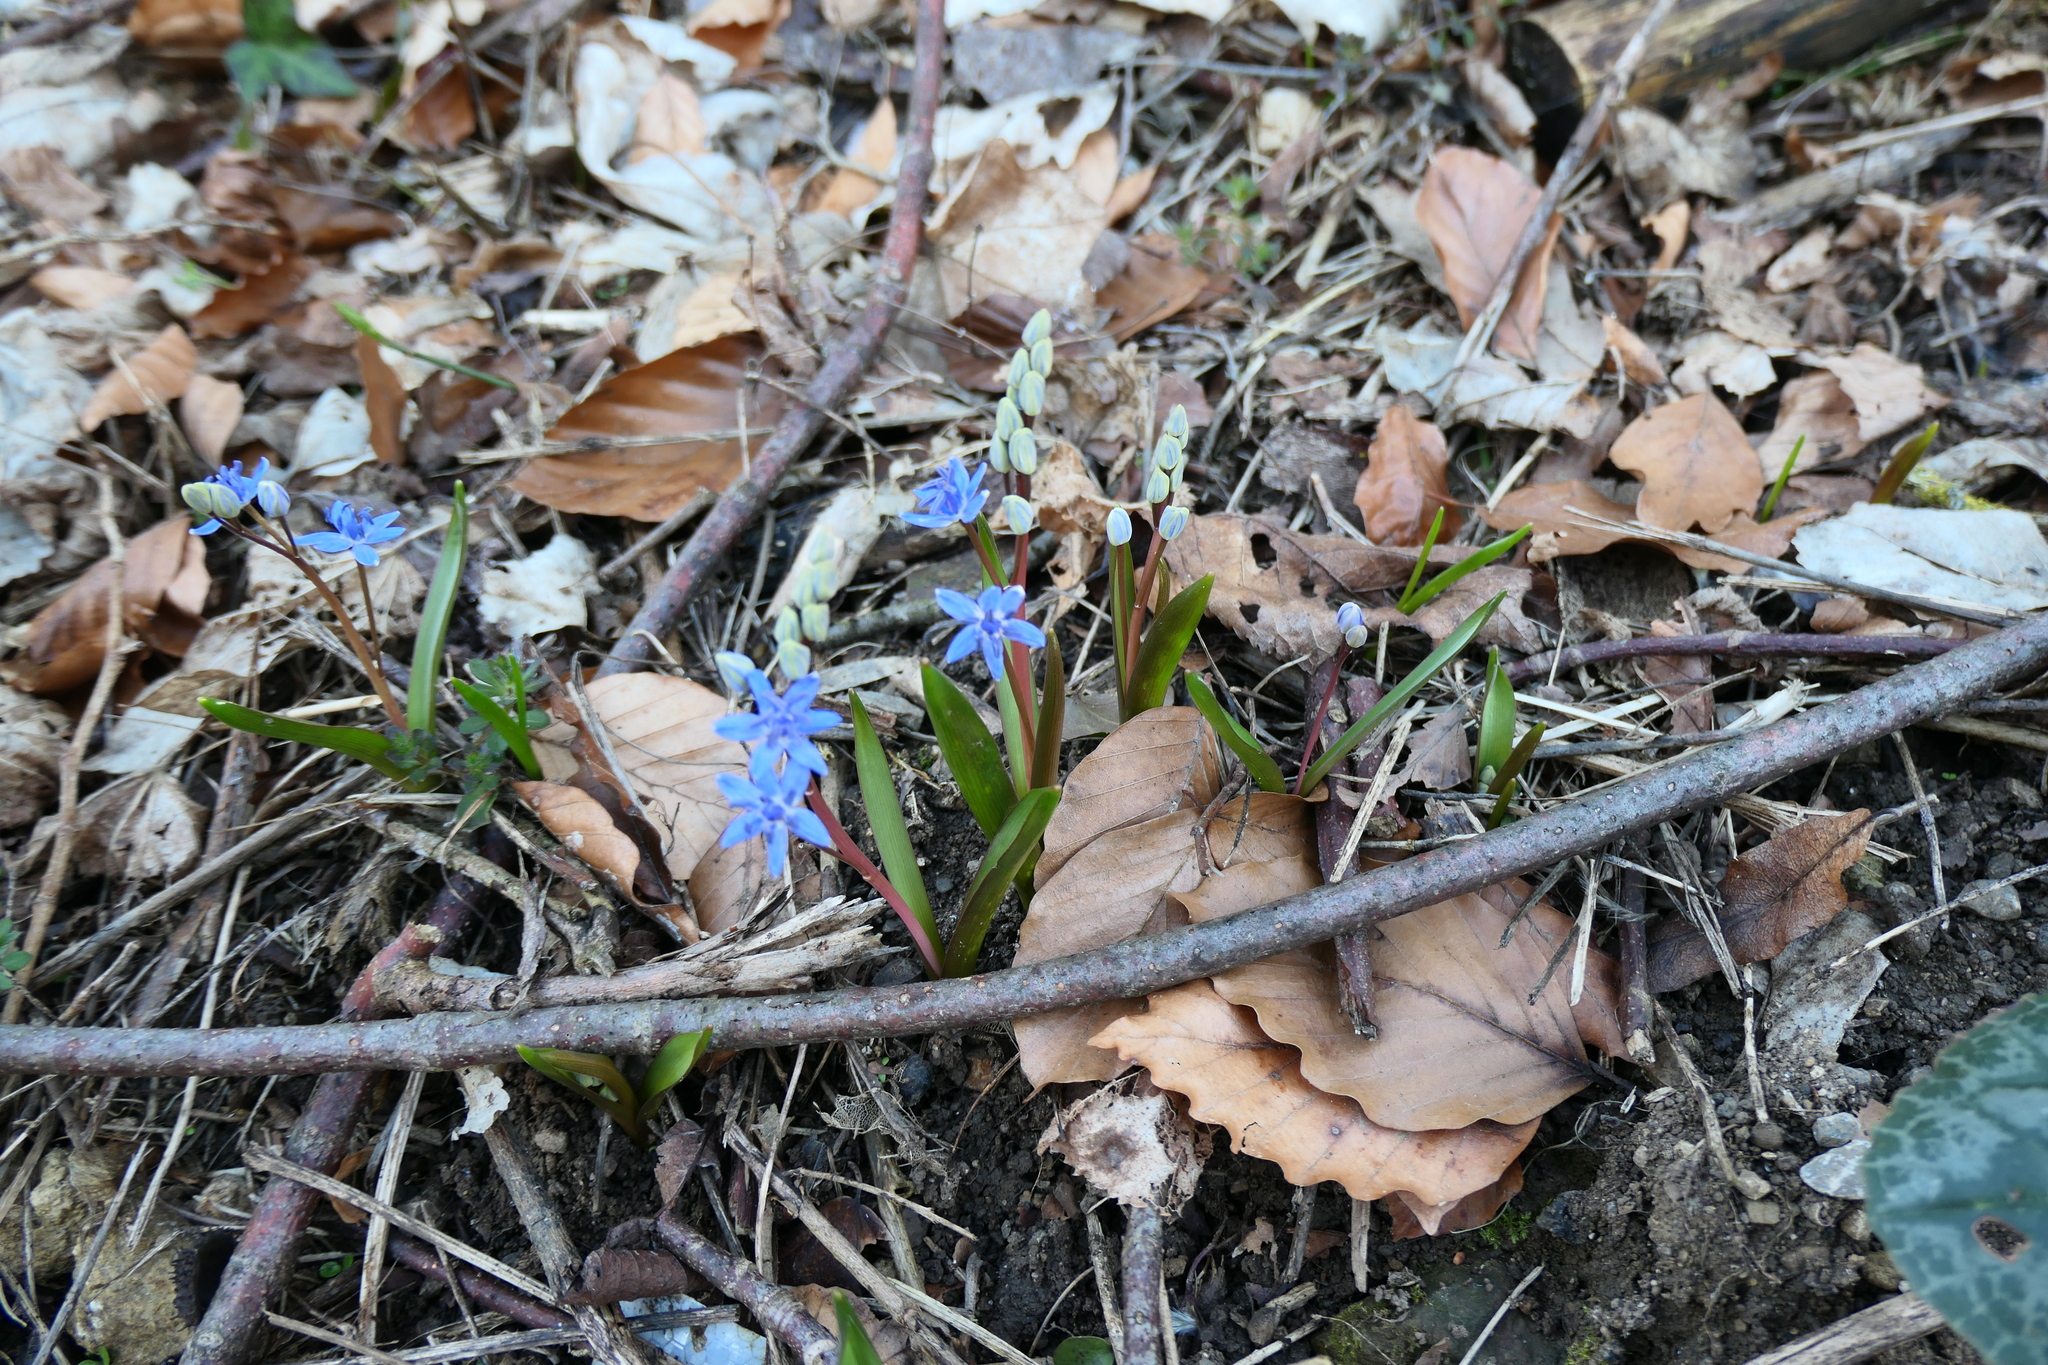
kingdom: Plantae
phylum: Tracheophyta
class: Liliopsida
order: Asparagales
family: Asparagaceae
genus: Scilla
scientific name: Scilla vindobonensis
